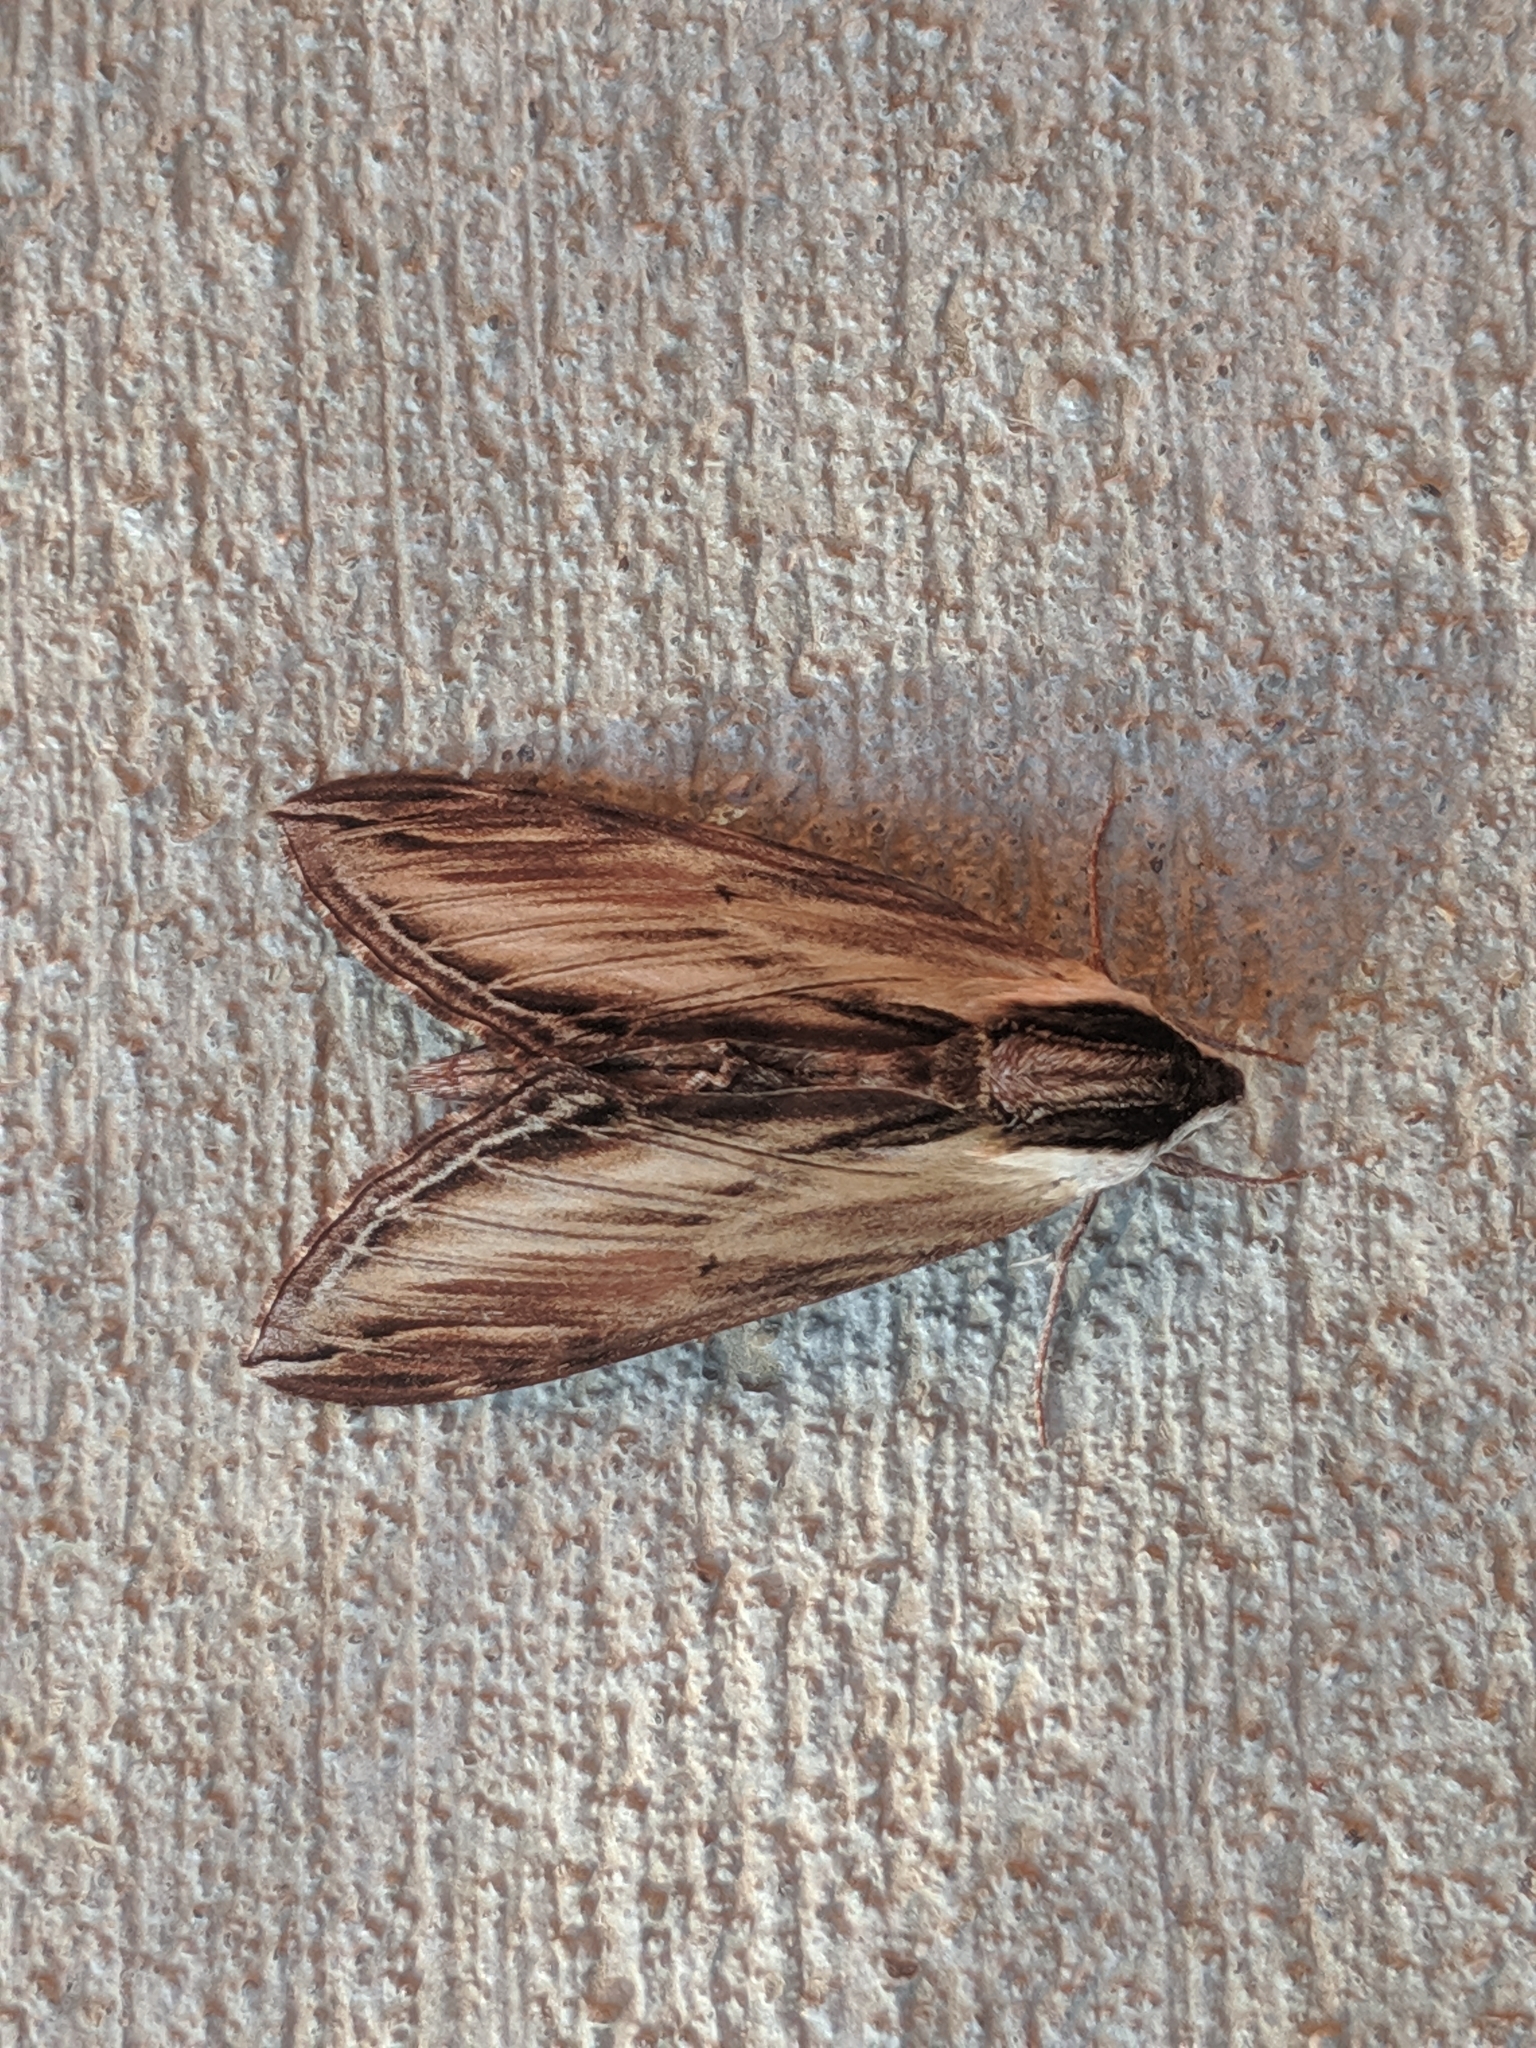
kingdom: Animalia
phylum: Arthropoda
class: Insecta
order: Lepidoptera
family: Sphingidae
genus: Sphinx
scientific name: Sphinx kalmiae
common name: Laurel sphinx
